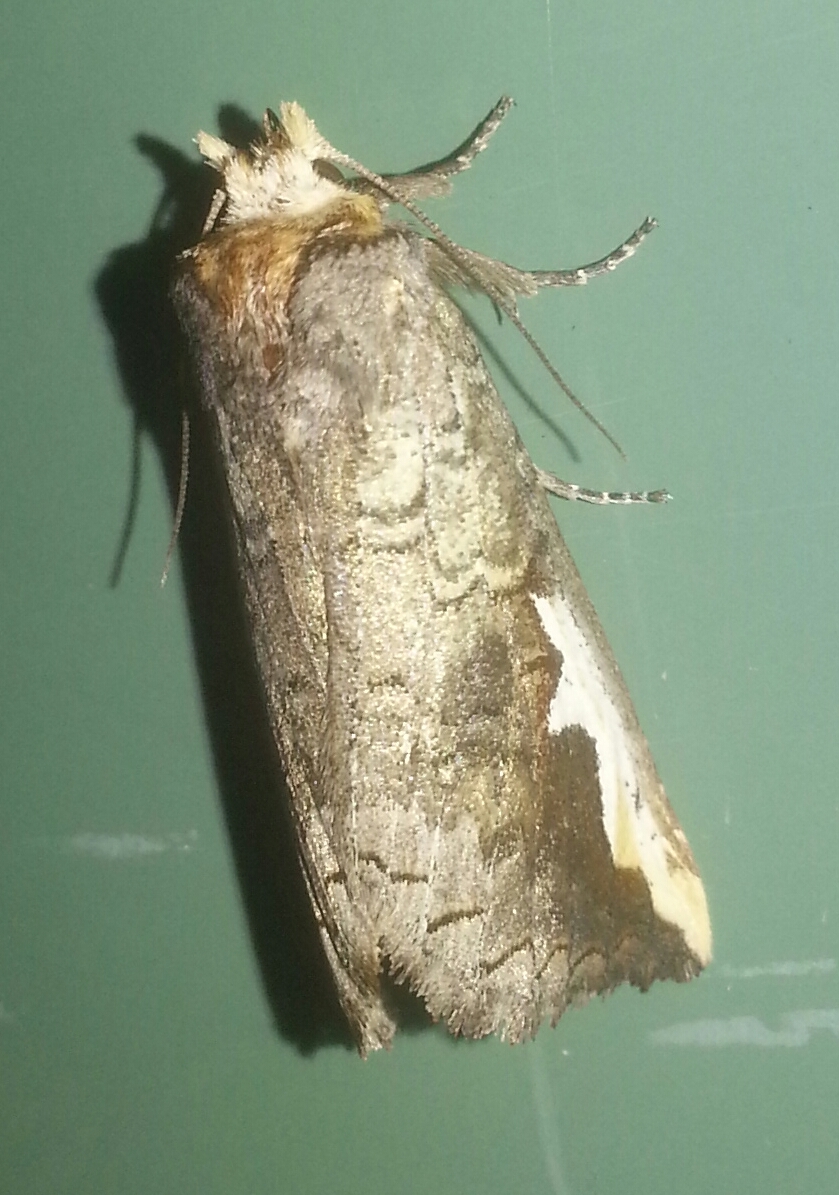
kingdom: Animalia
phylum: Arthropoda
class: Insecta
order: Lepidoptera
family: Notodontidae
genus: Symmerista
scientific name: Symmerista
